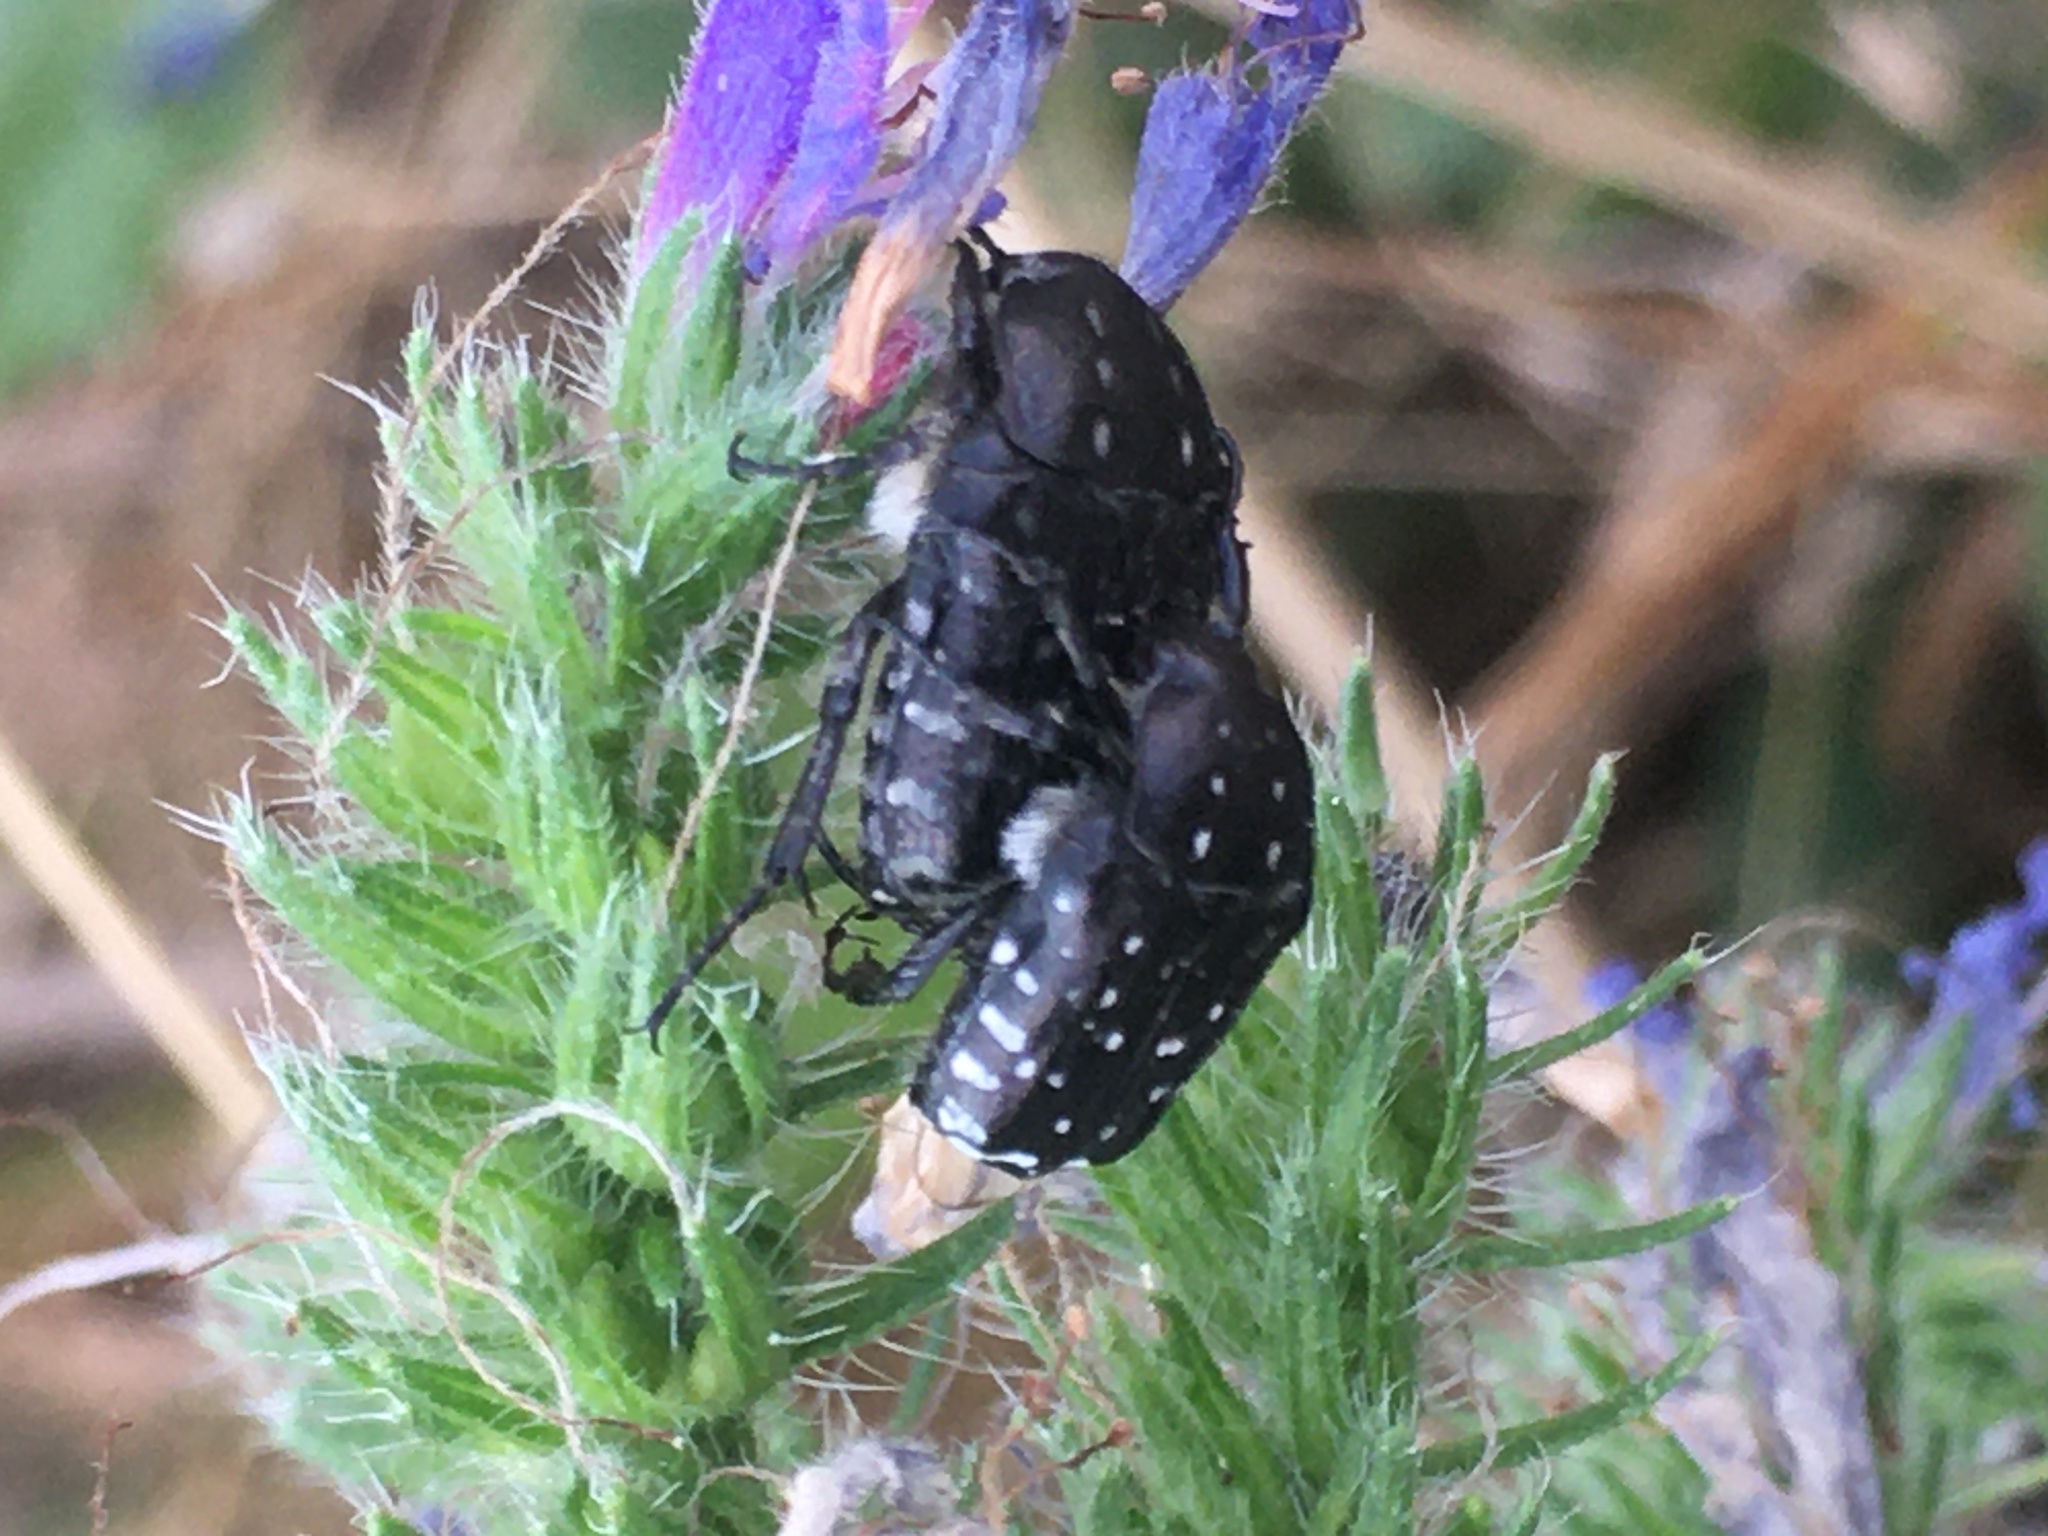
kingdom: Animalia
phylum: Arthropoda
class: Insecta
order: Coleoptera
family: Scarabaeidae
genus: Oxythyrea
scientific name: Oxythyrea funesta
